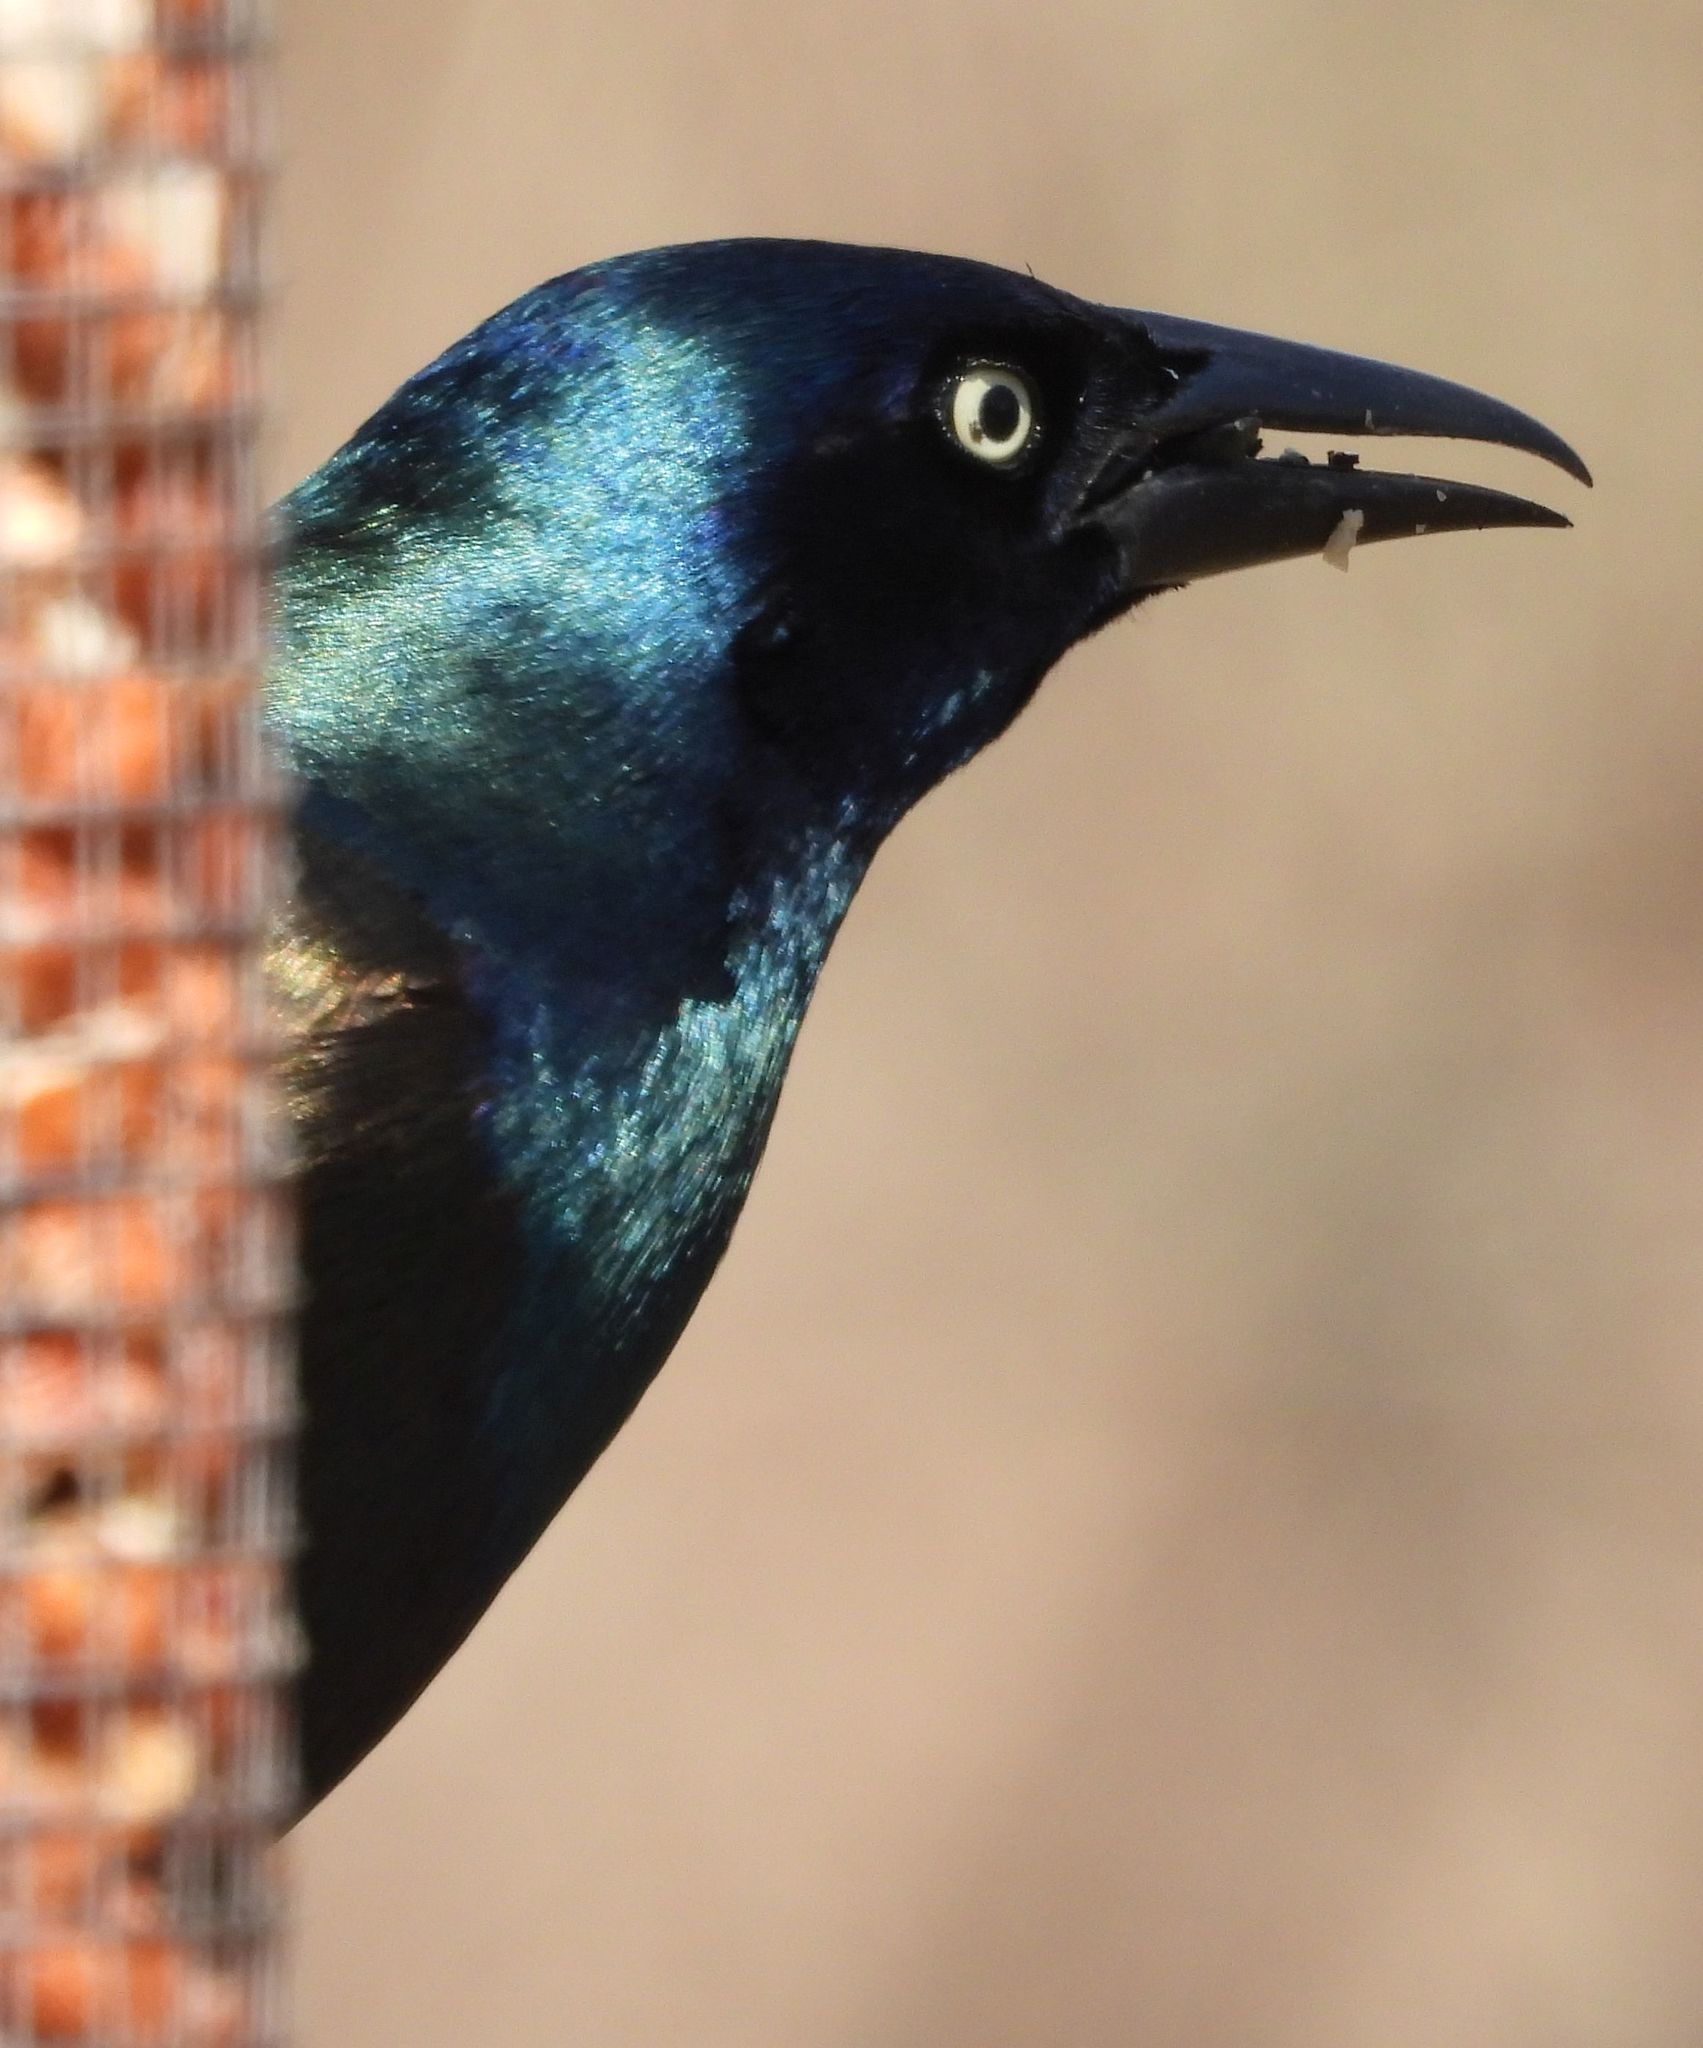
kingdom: Animalia
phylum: Chordata
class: Aves
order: Passeriformes
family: Icteridae
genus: Quiscalus
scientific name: Quiscalus quiscula
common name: Common grackle
